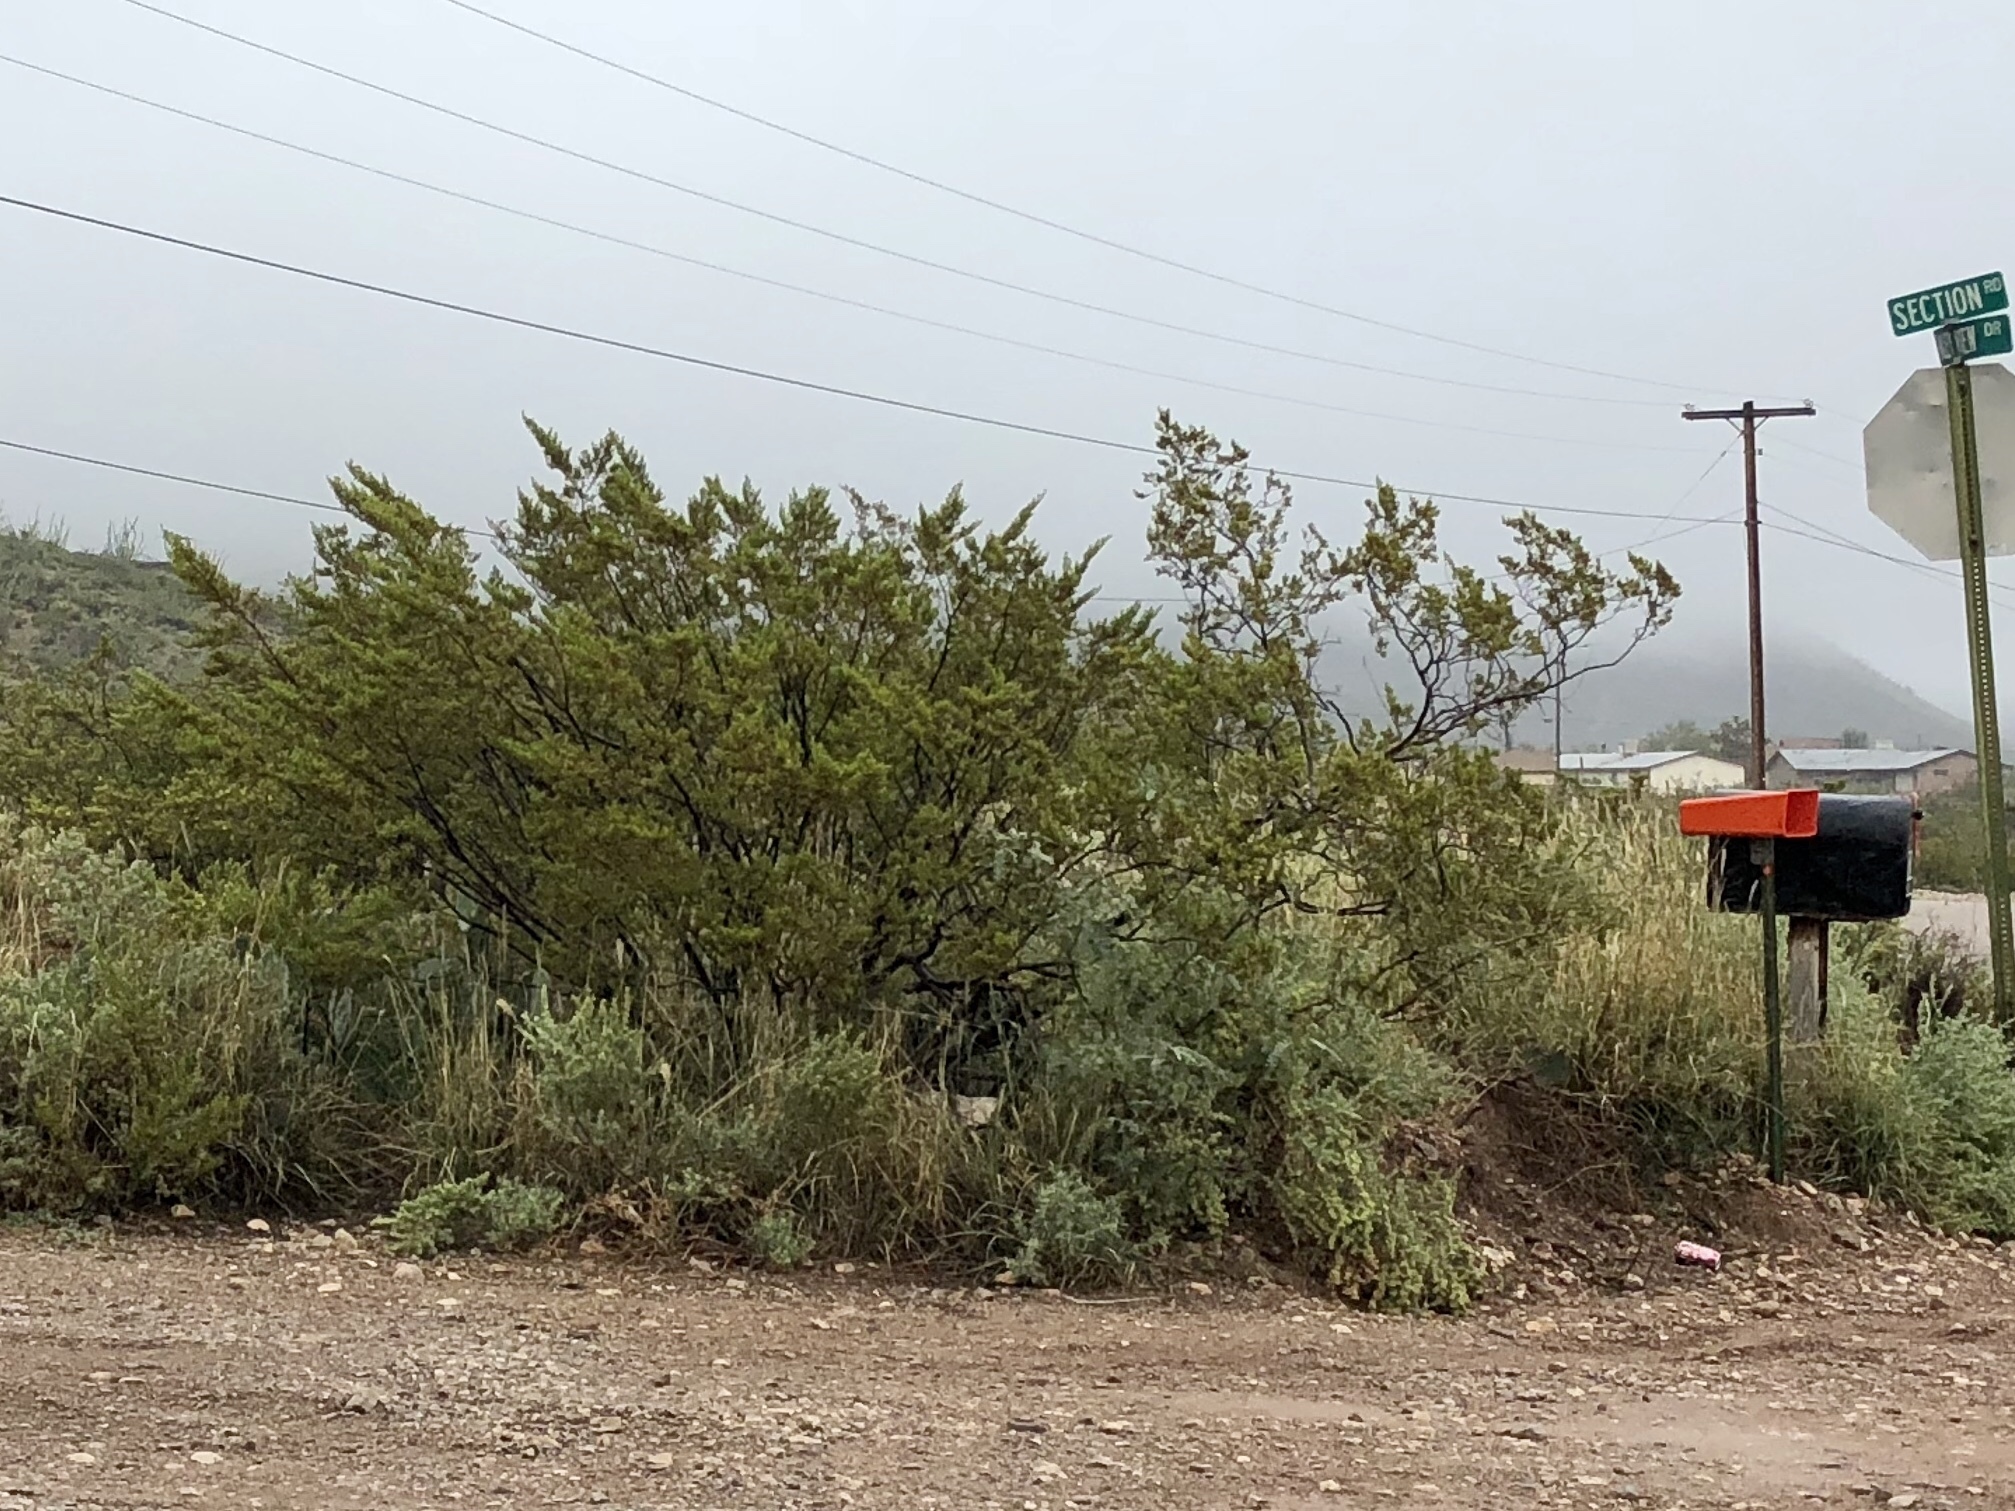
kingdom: Plantae
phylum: Tracheophyta
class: Magnoliopsida
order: Zygophyllales
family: Zygophyllaceae
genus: Larrea
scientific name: Larrea tridentata
